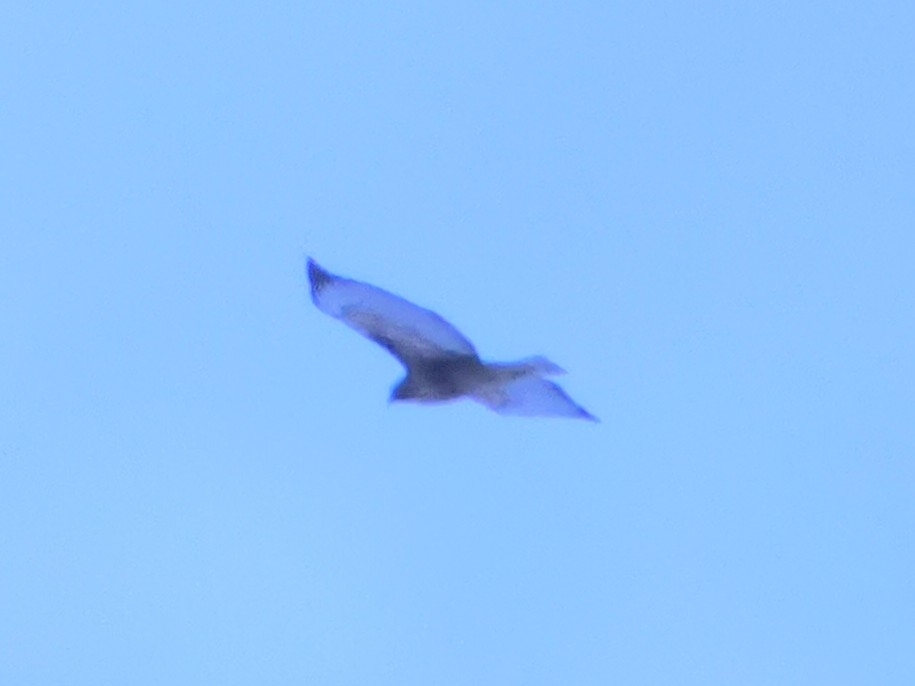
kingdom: Animalia
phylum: Chordata
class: Aves
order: Accipitriformes
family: Accipitridae
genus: Buteo
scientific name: Buteo jamaicensis
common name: Red-tailed hawk
